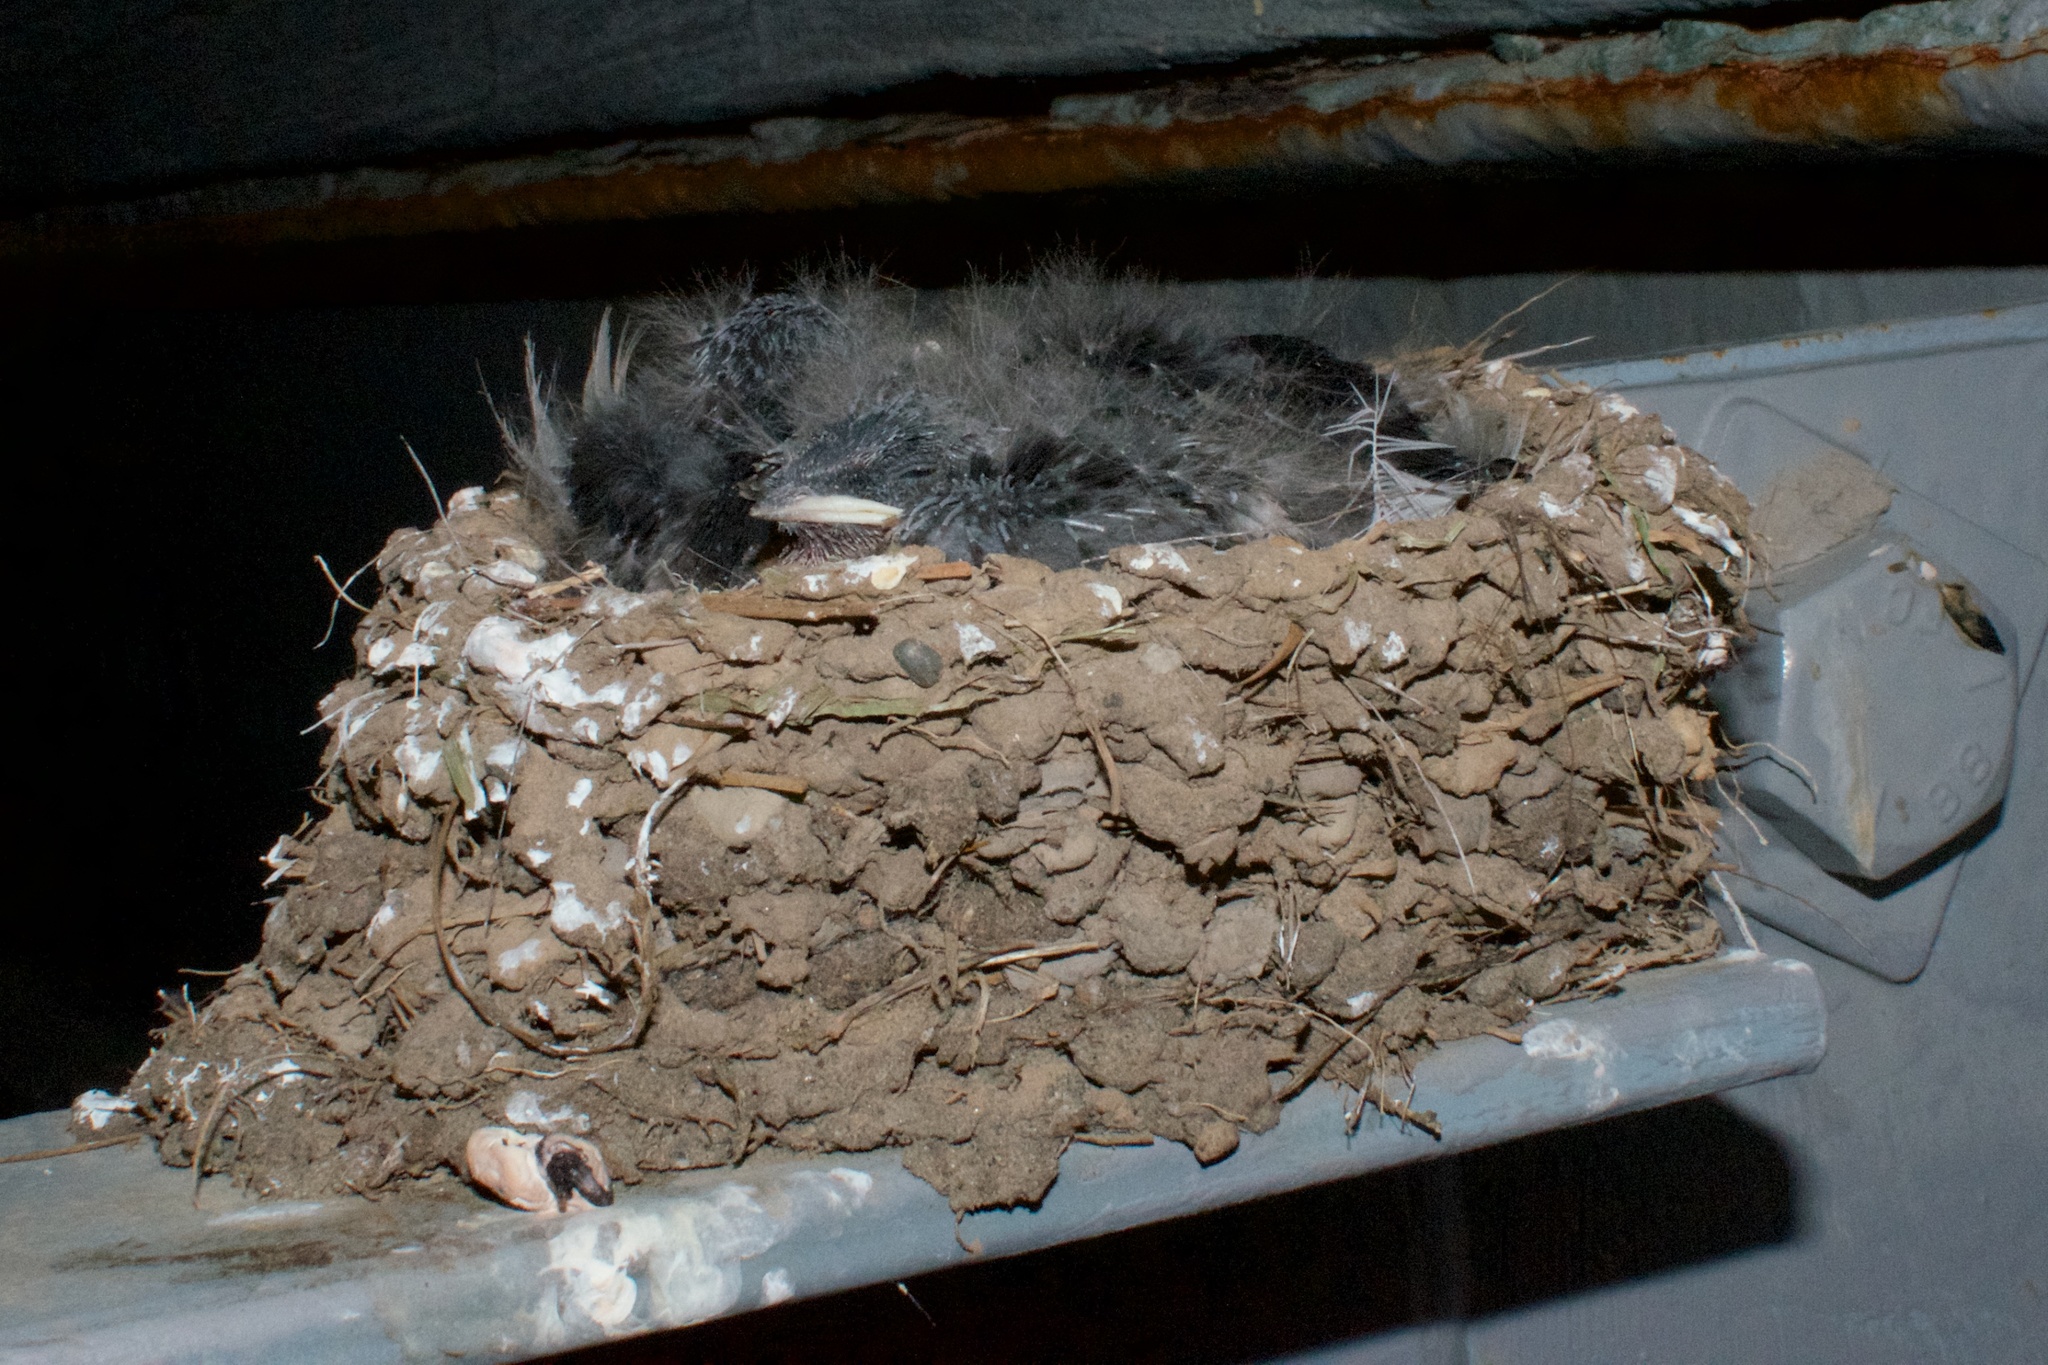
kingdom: Animalia
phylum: Chordata
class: Aves
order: Passeriformes
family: Hirundinidae
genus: Hirundo
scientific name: Hirundo neoxena
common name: Welcome swallow
